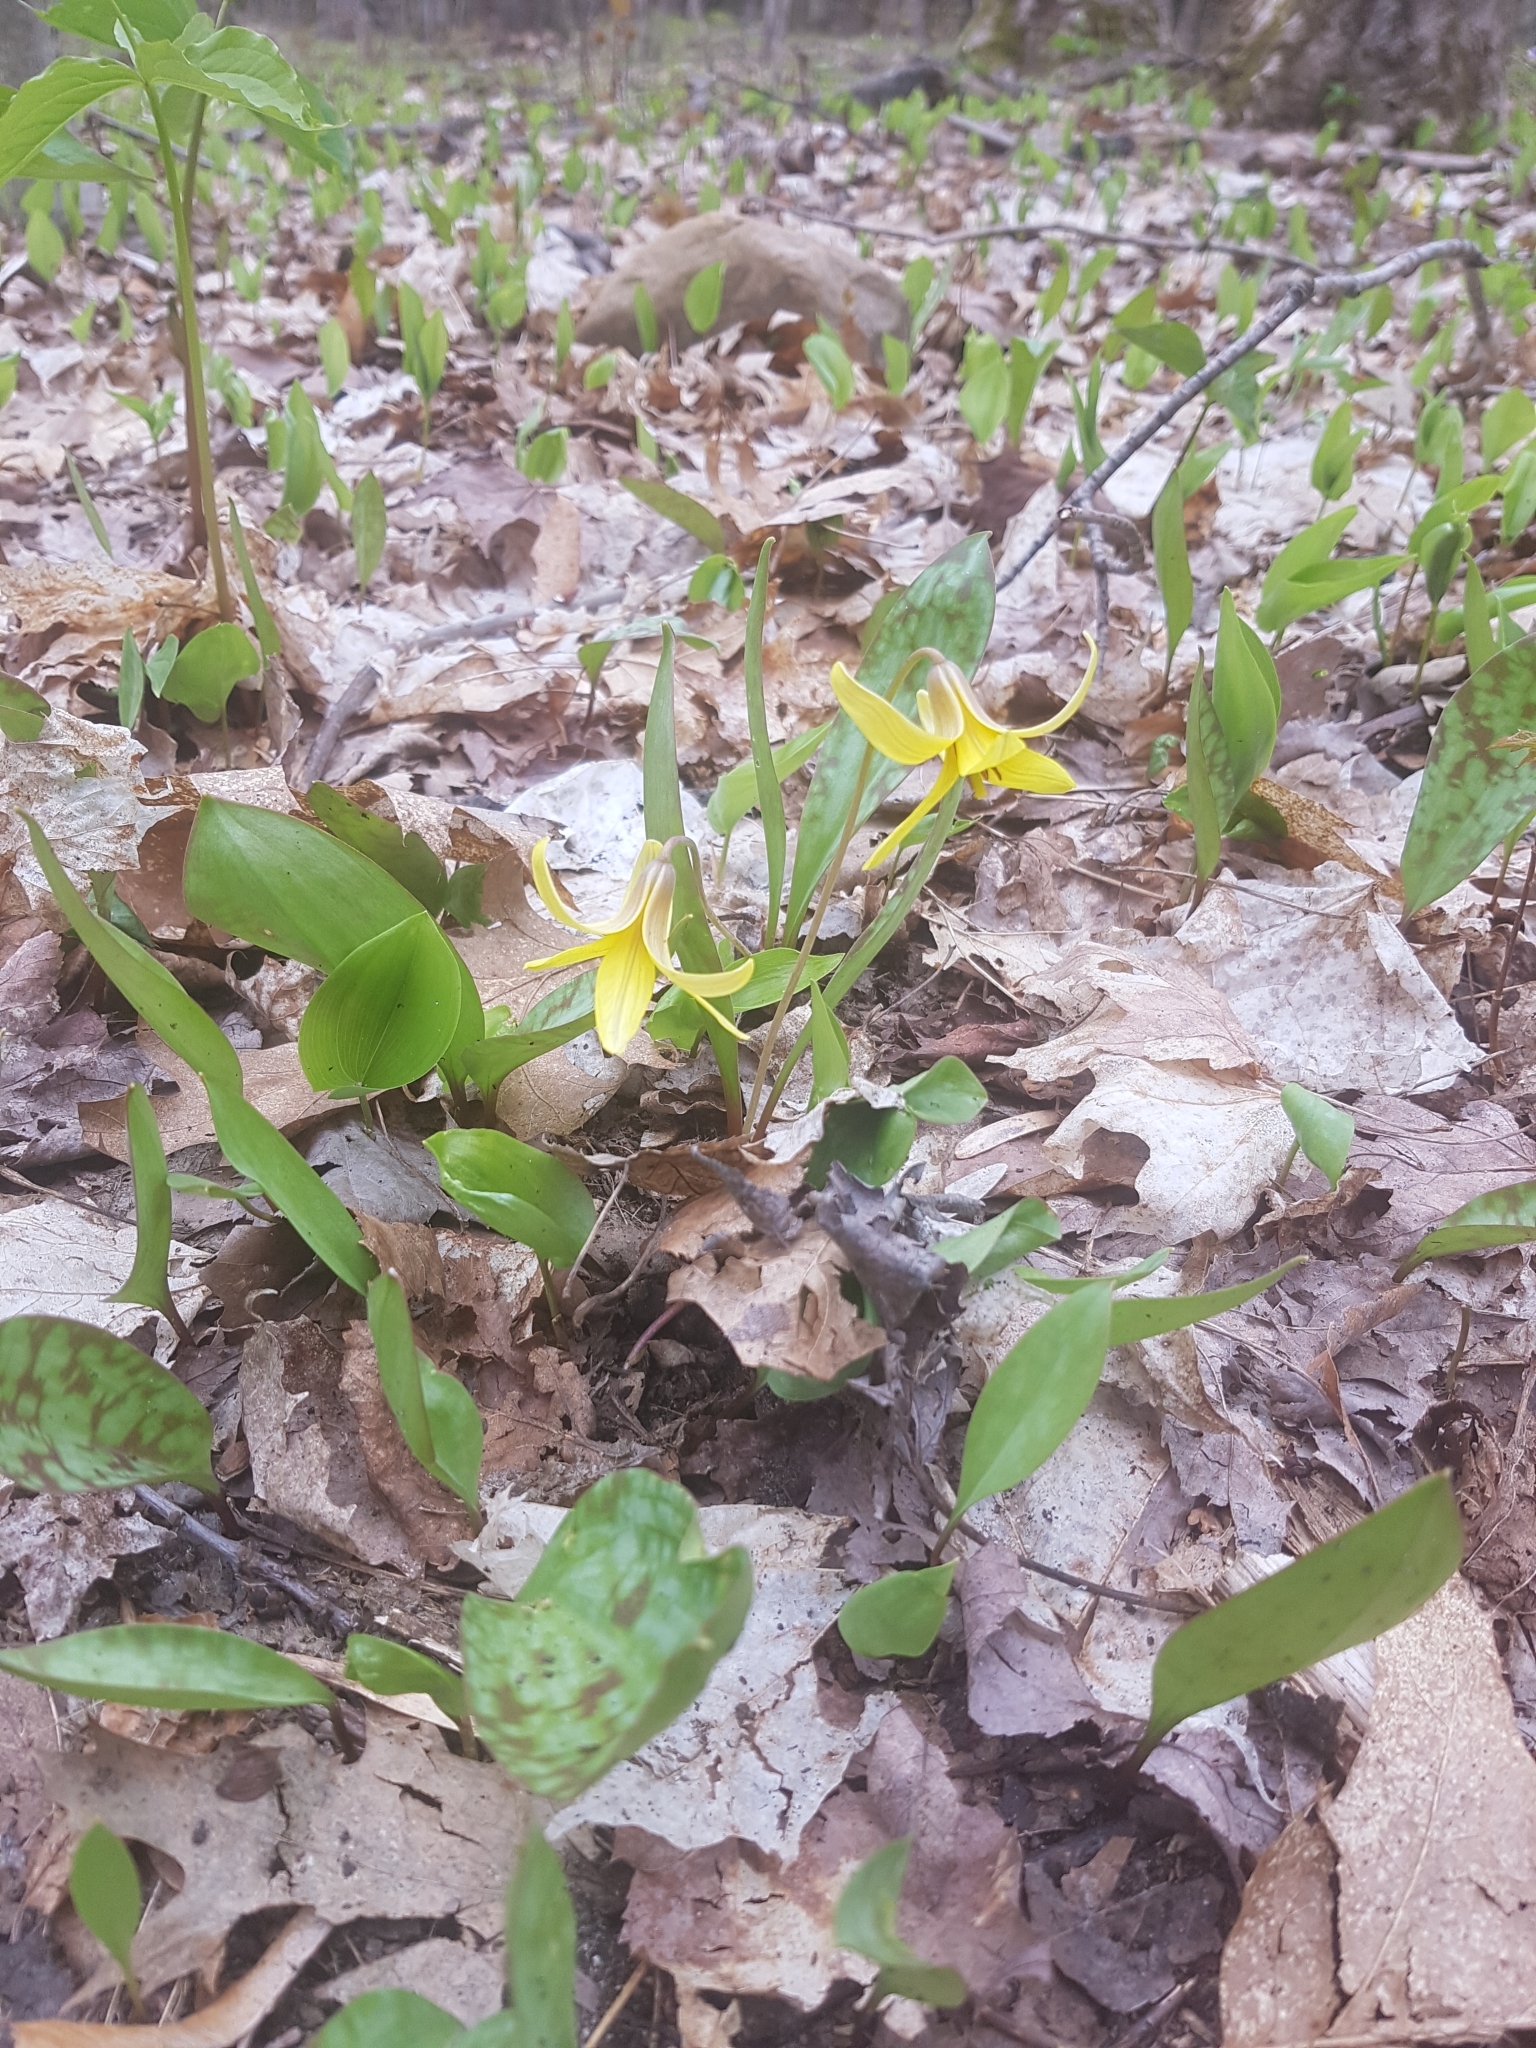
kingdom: Plantae
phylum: Tracheophyta
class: Liliopsida
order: Liliales
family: Liliaceae
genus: Erythronium
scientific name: Erythronium americanum
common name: Yellow adder's-tongue
